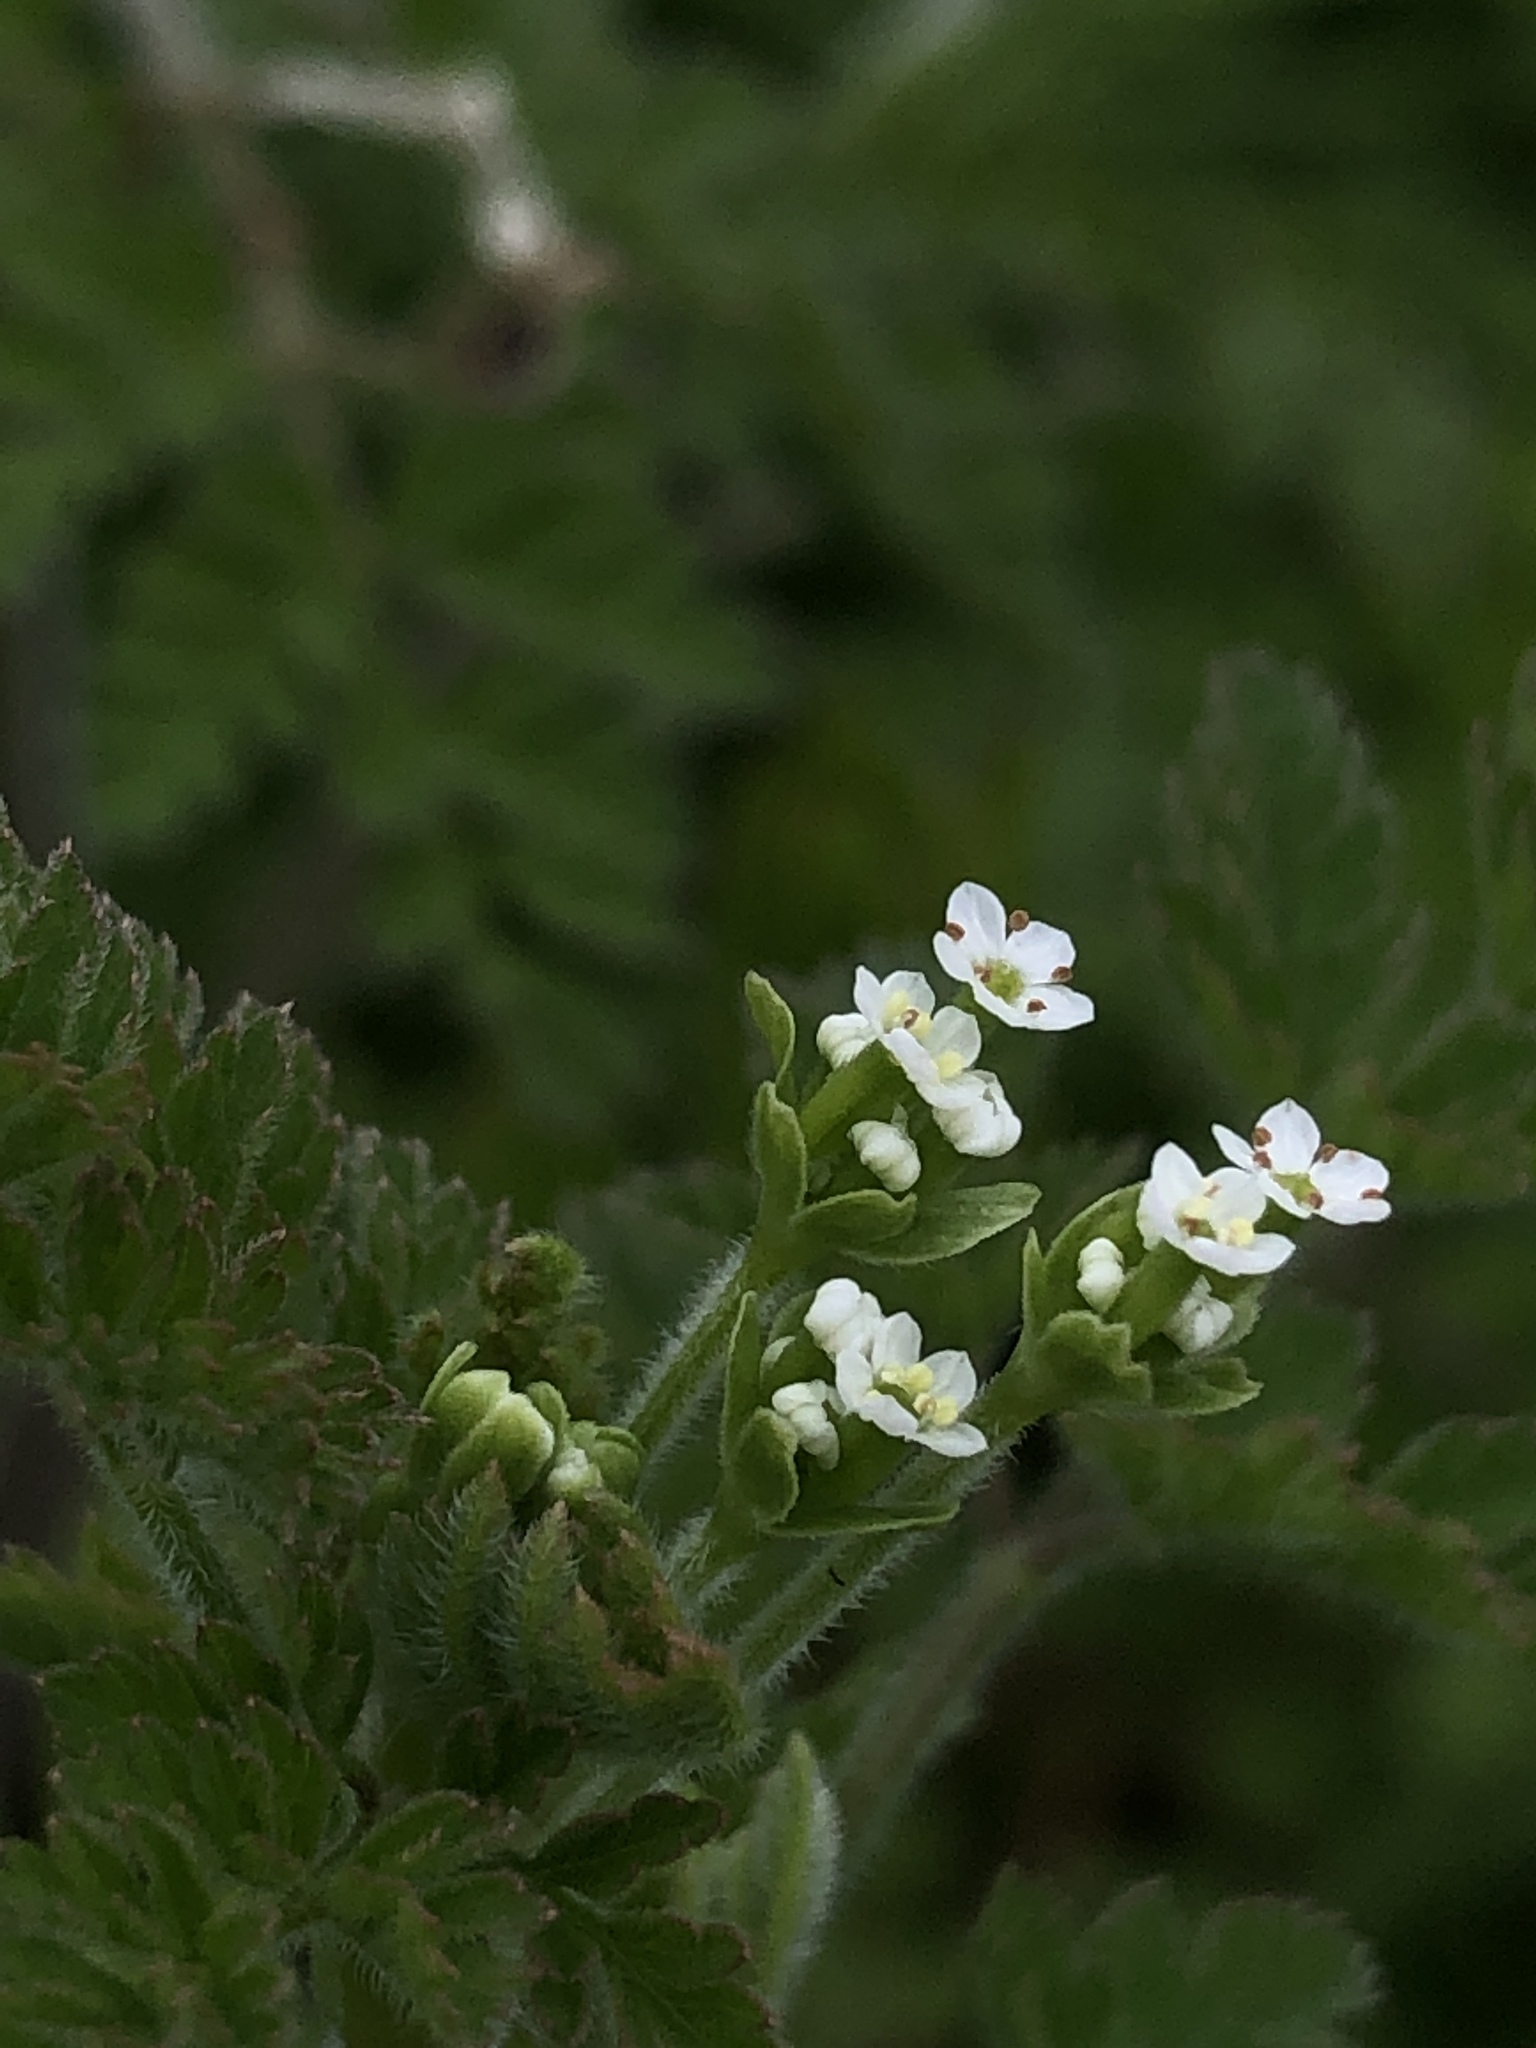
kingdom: Plantae
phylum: Tracheophyta
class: Magnoliopsida
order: Apiales
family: Apiaceae
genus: Chaerophyllum
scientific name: Chaerophyllum tainturieri
